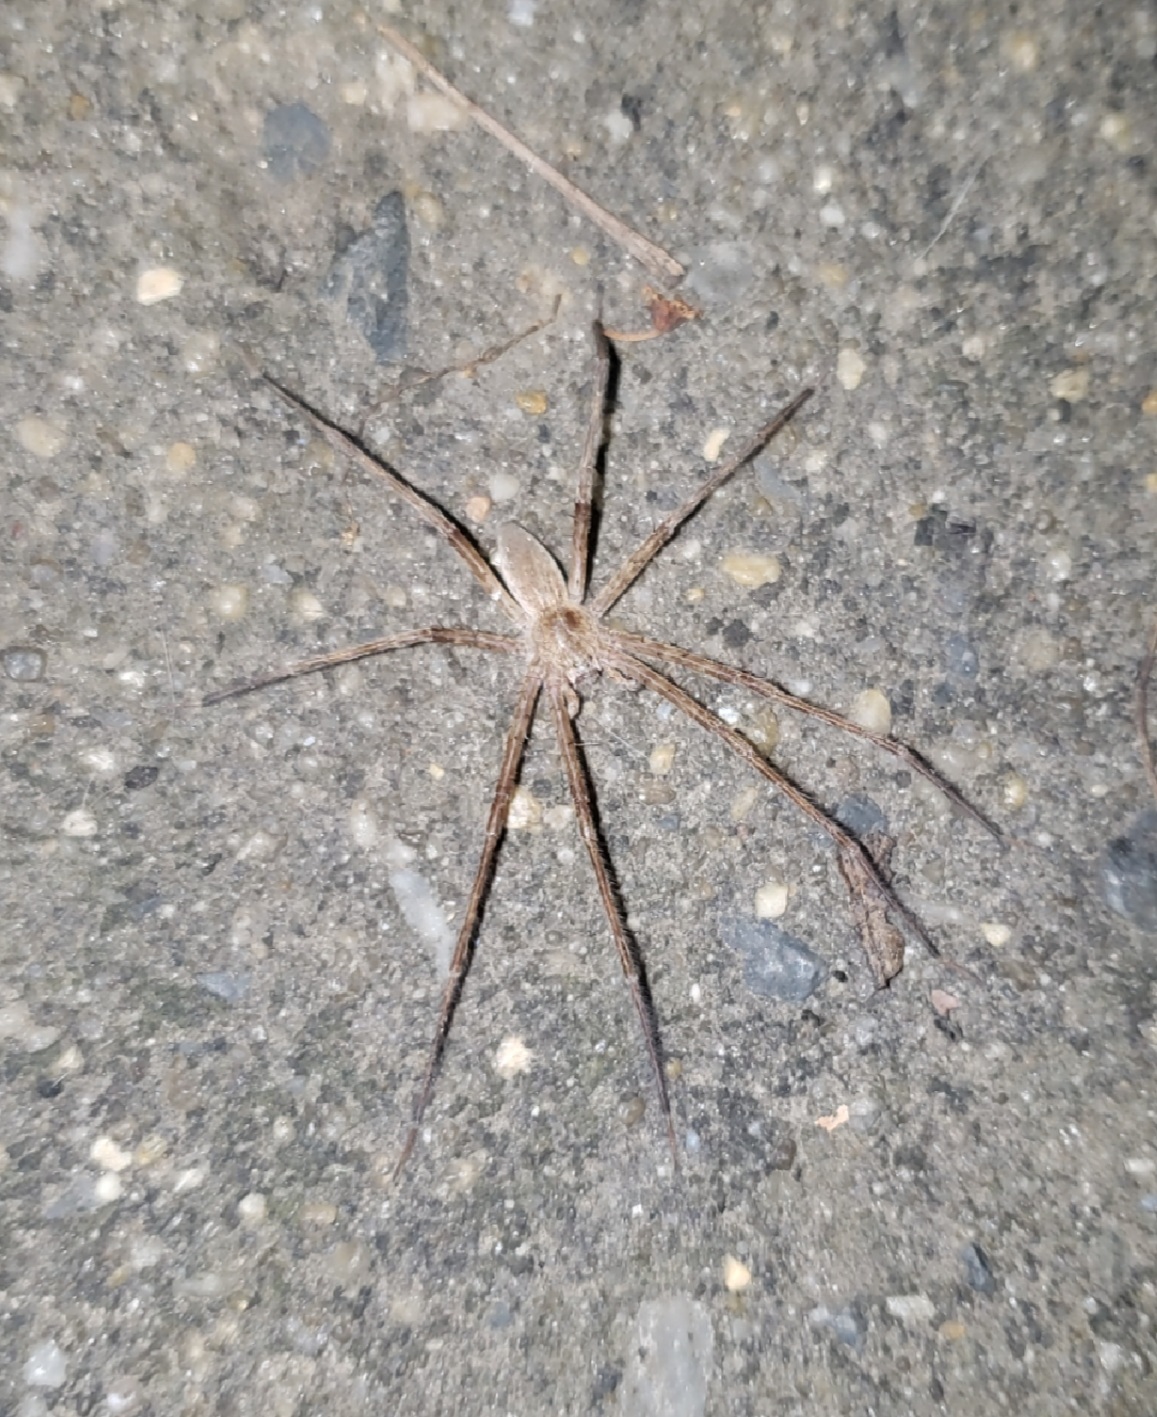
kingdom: Animalia
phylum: Arthropoda
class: Arachnida
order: Araneae
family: Pisauridae
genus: Pisaurina
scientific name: Pisaurina mira
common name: American nursery web spider
